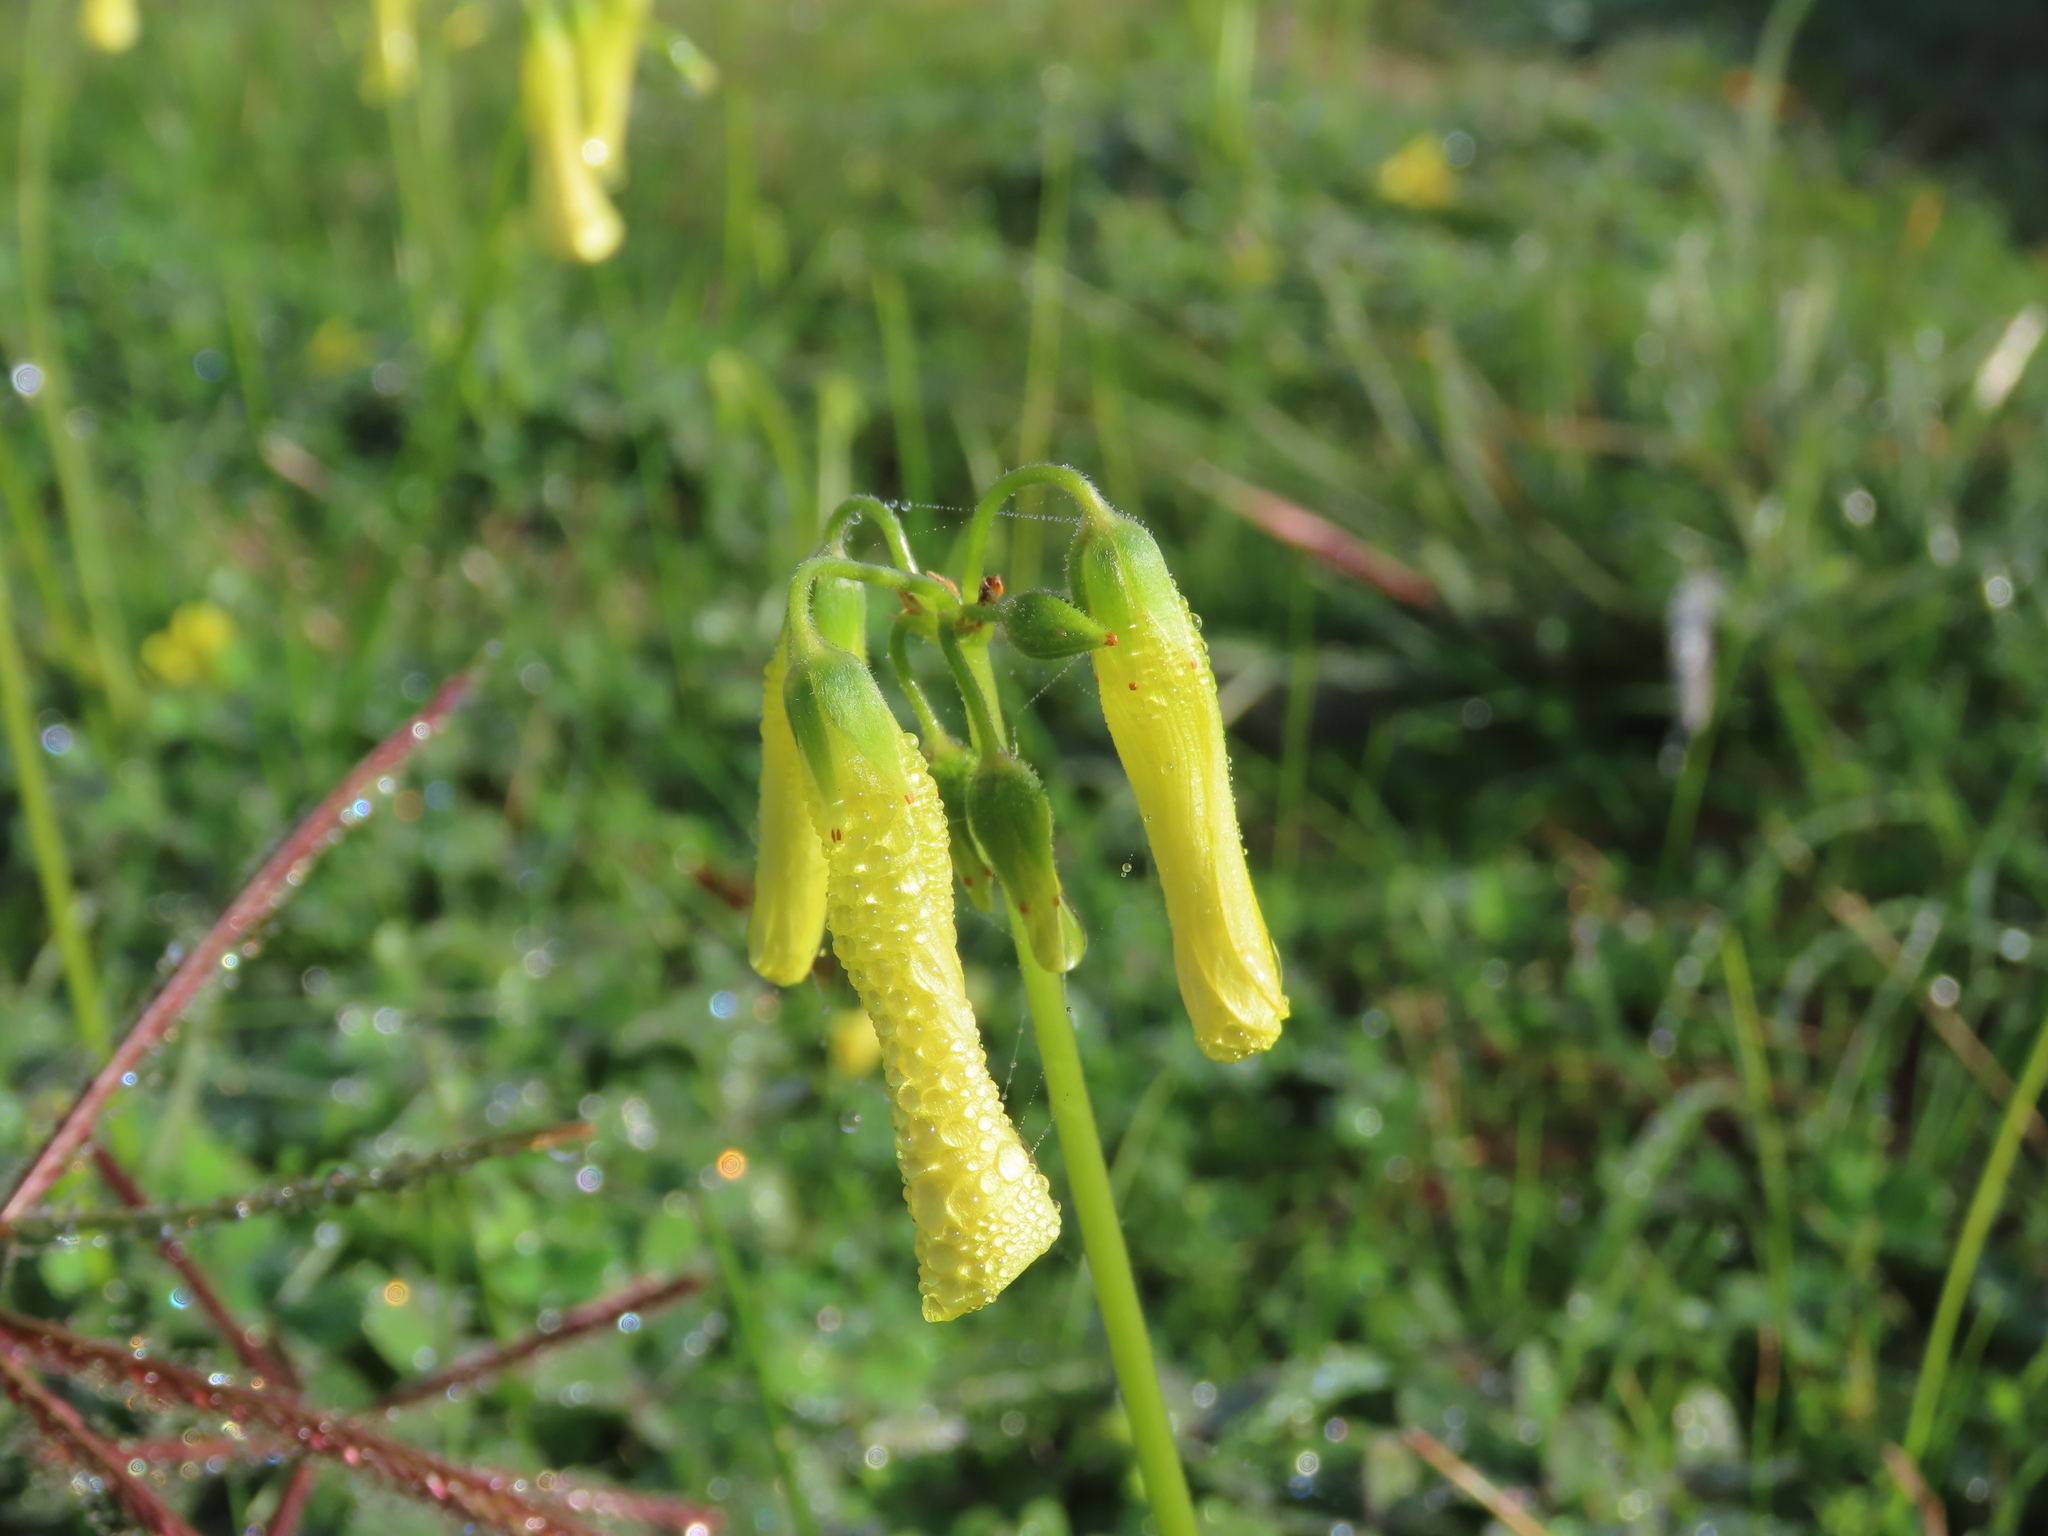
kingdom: Plantae
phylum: Tracheophyta
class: Magnoliopsida
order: Oxalidales
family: Oxalidaceae
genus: Oxalis
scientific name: Oxalis pes-caprae
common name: Bermuda-buttercup
